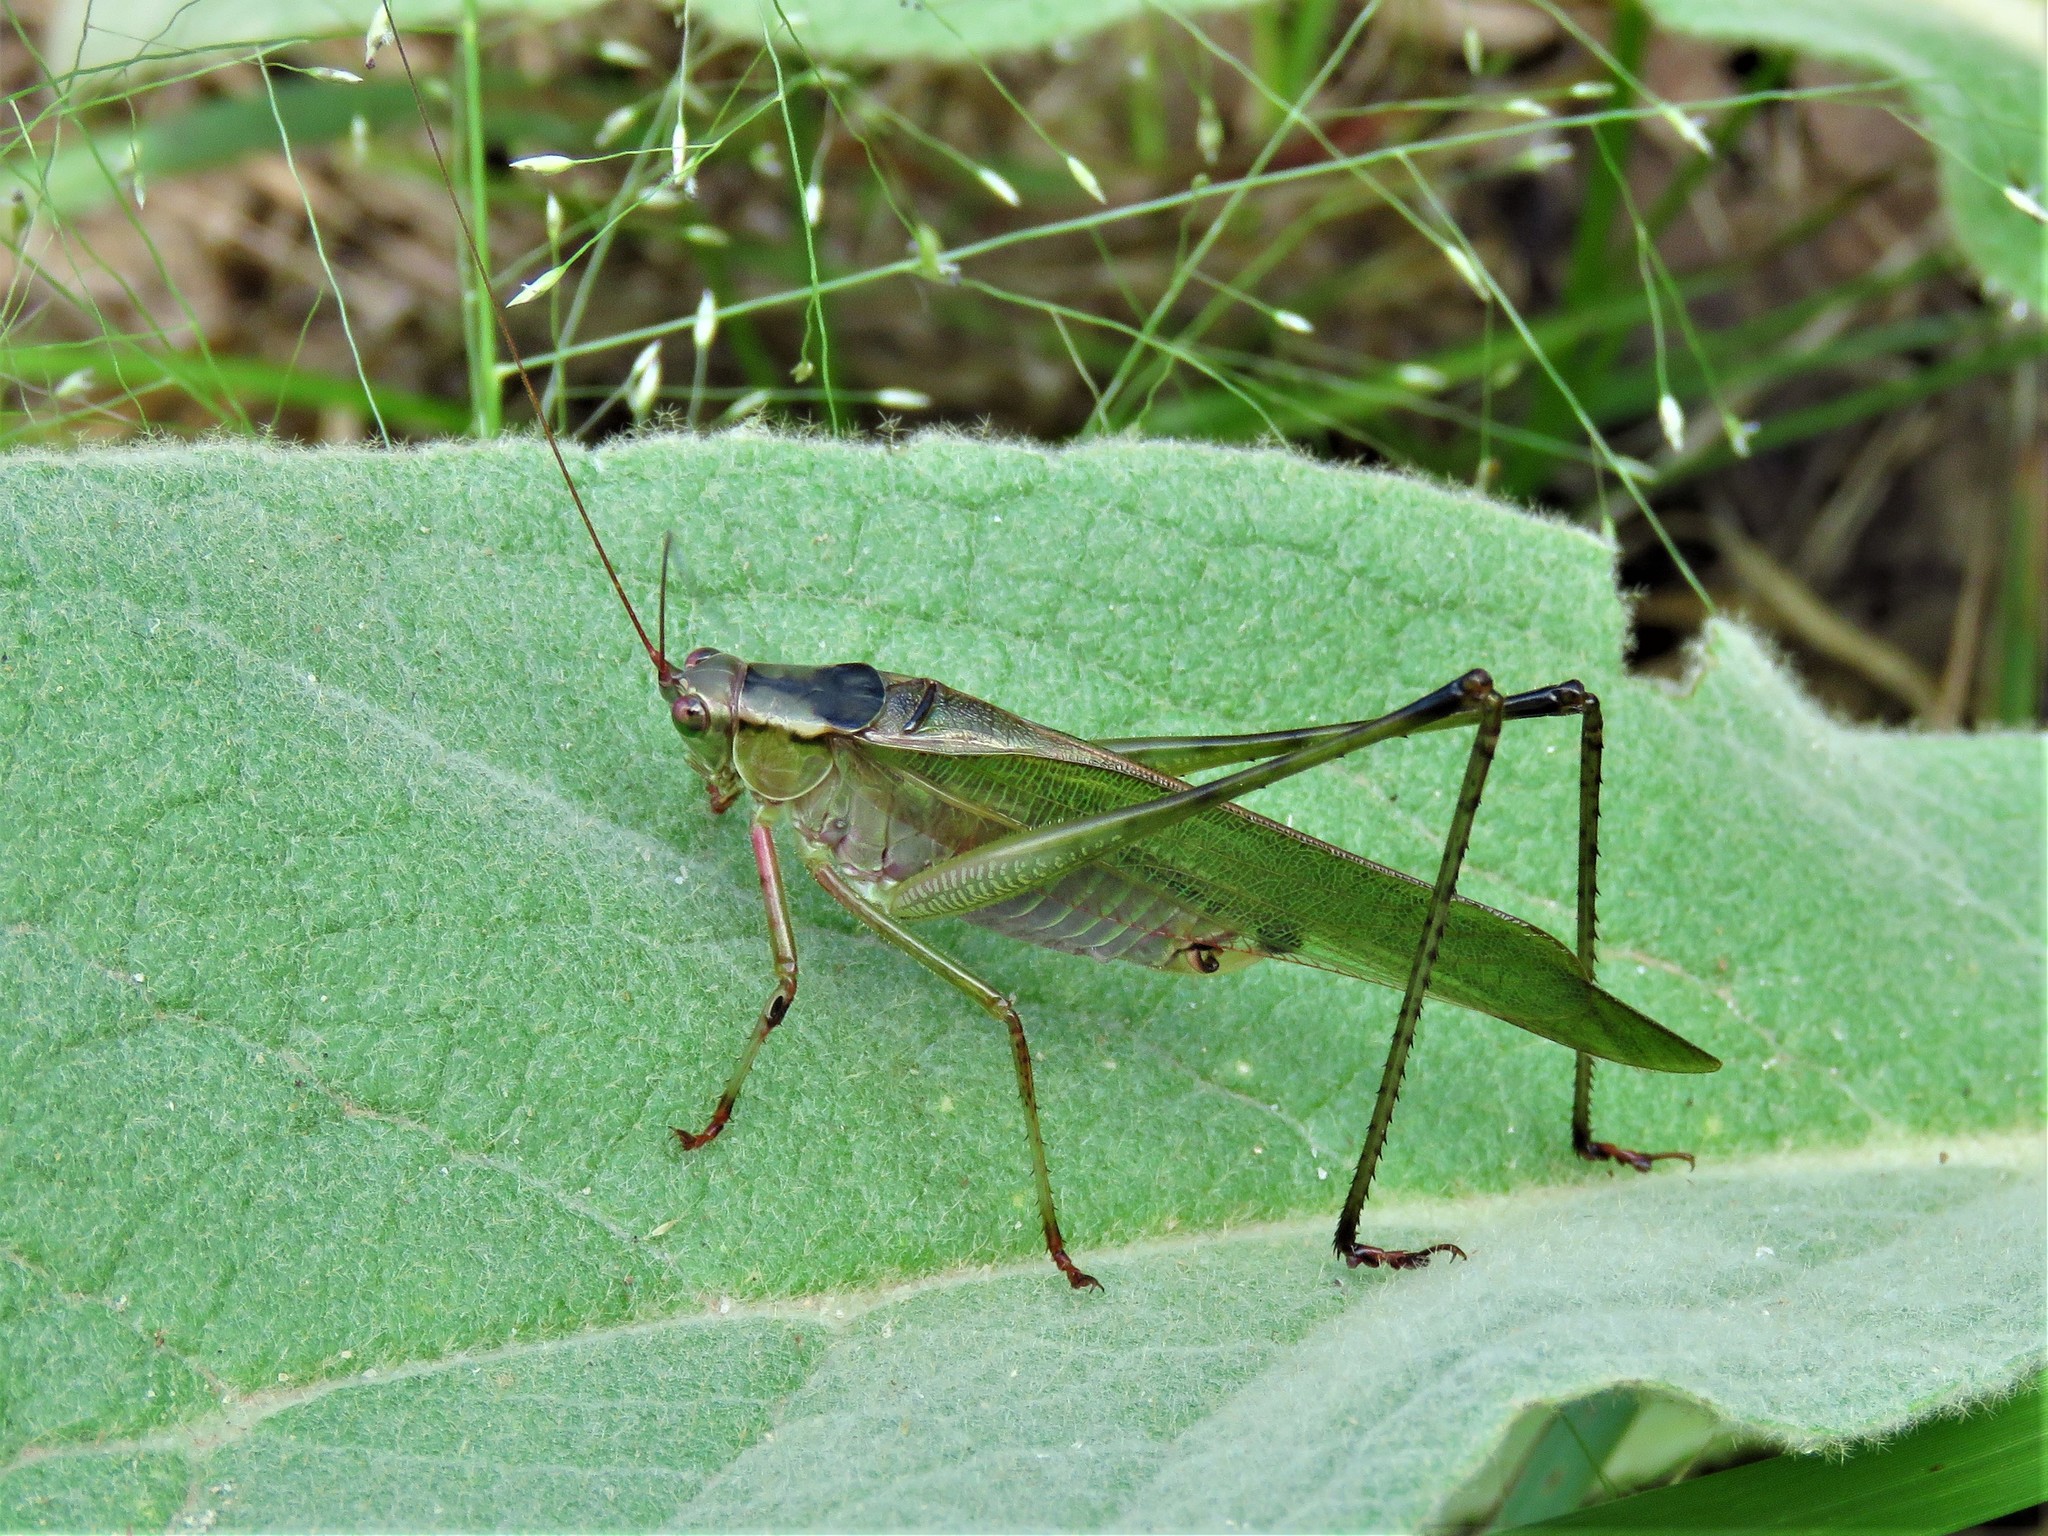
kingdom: Animalia
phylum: Arthropoda
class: Insecta
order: Orthoptera
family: Tettigoniidae
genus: Scudderia
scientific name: Scudderia furcata
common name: Fork-tailed bush katydid
